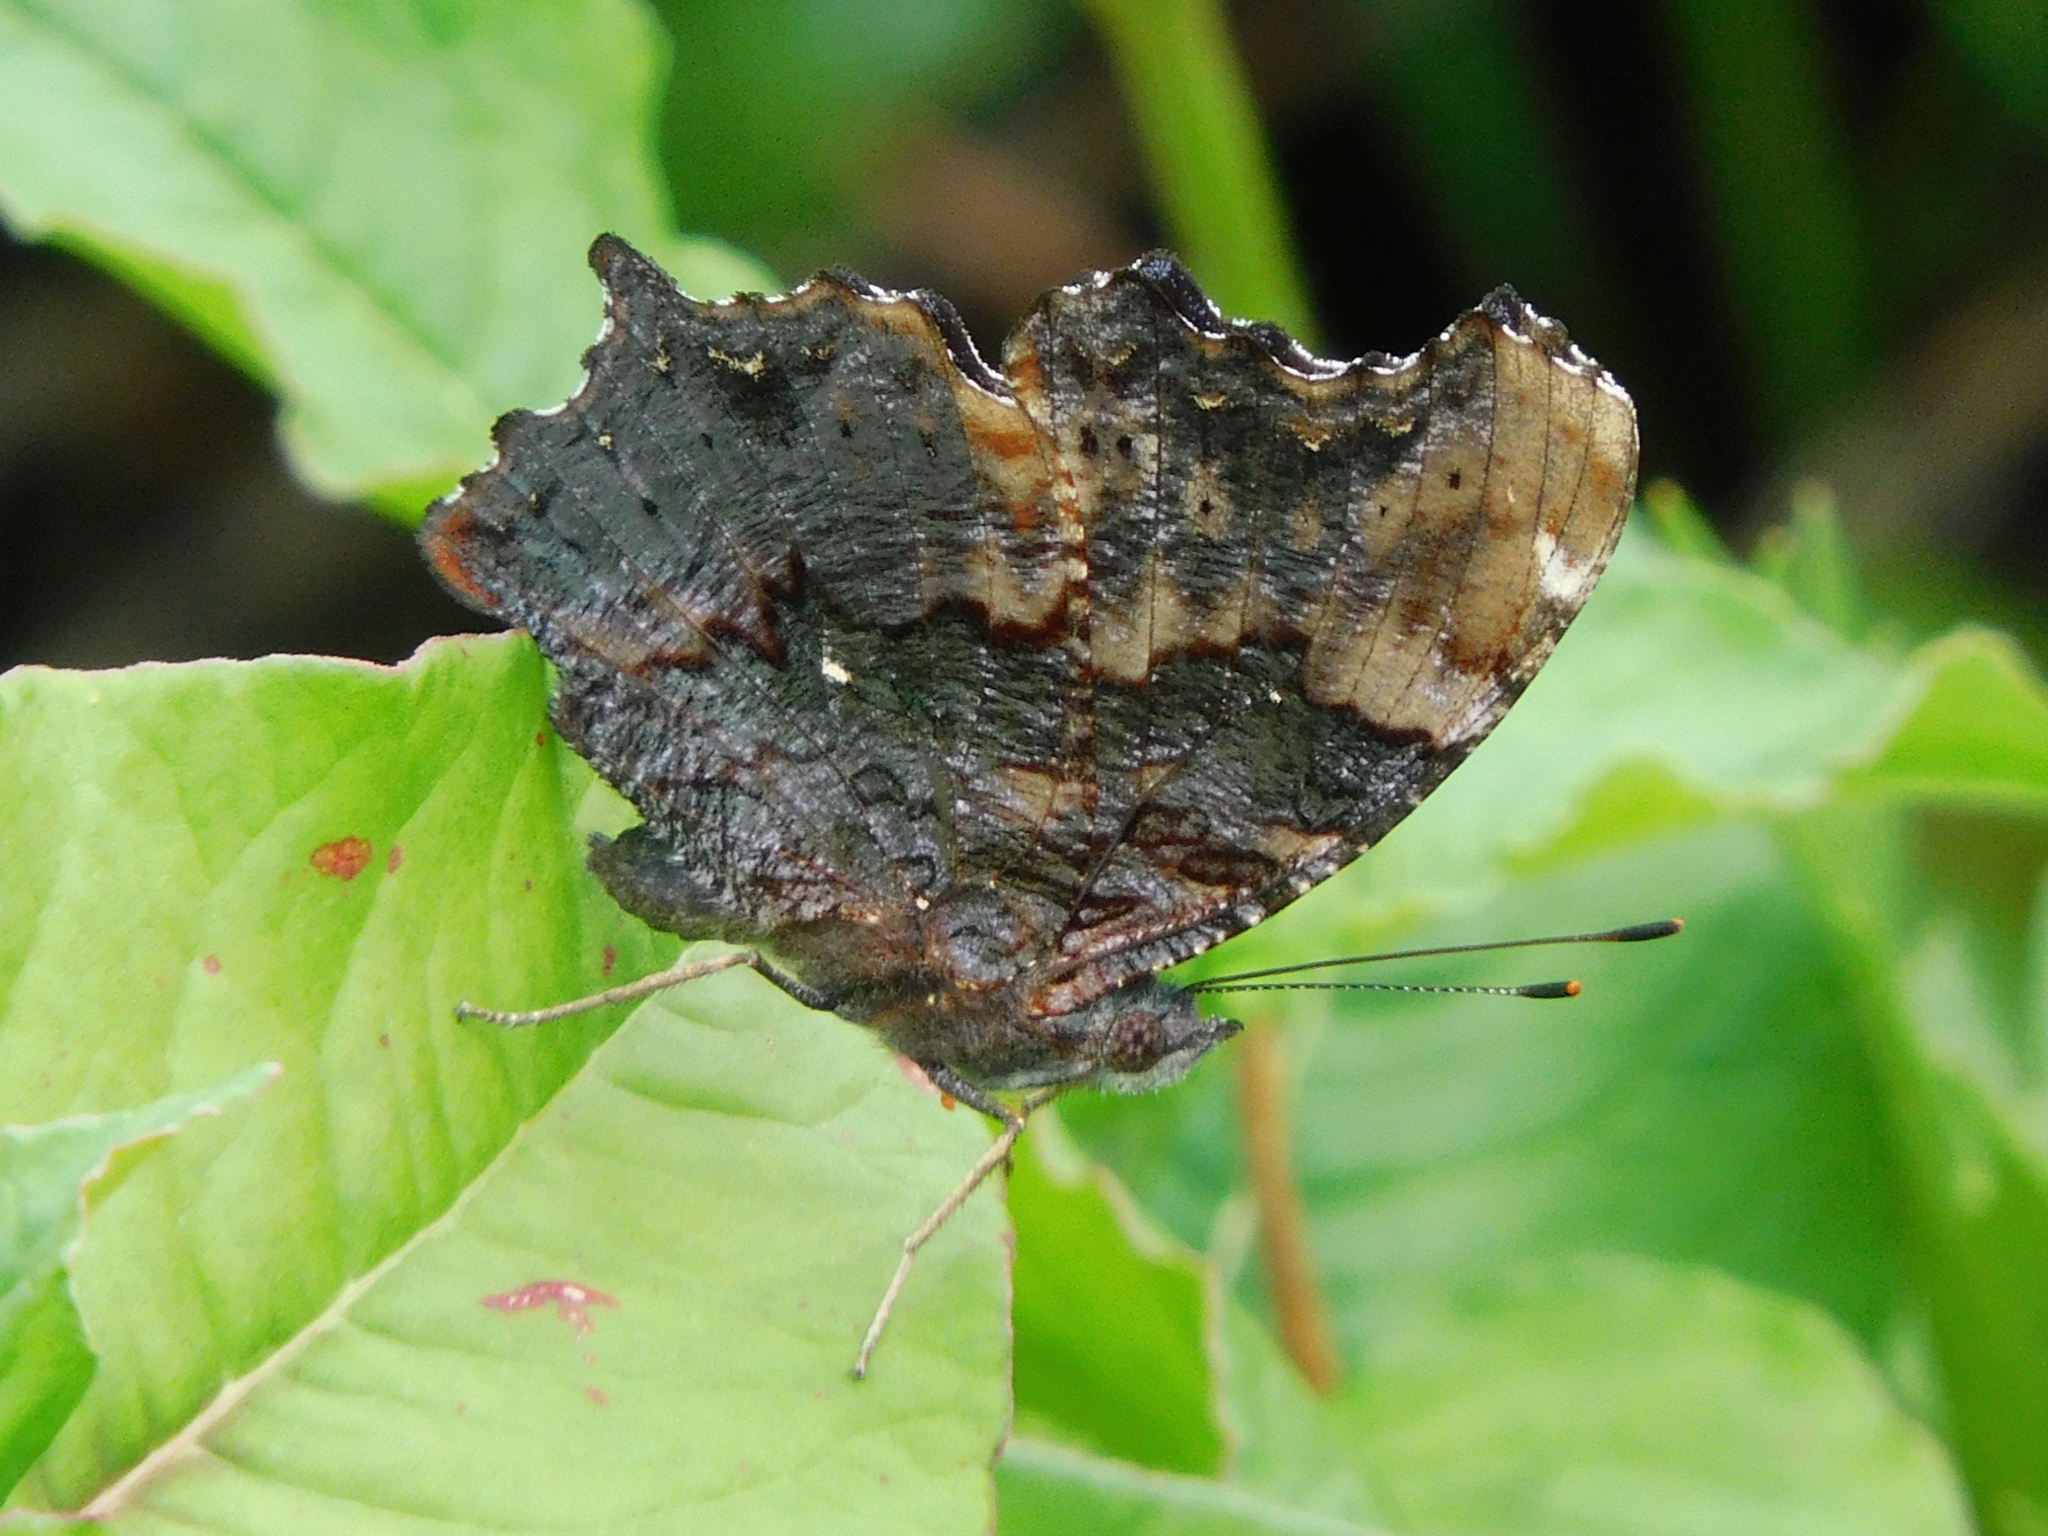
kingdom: Animalia
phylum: Arthropoda
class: Insecta
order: Lepidoptera
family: Nymphalidae
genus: Vanessa
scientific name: Vanessa Kaniska canace
